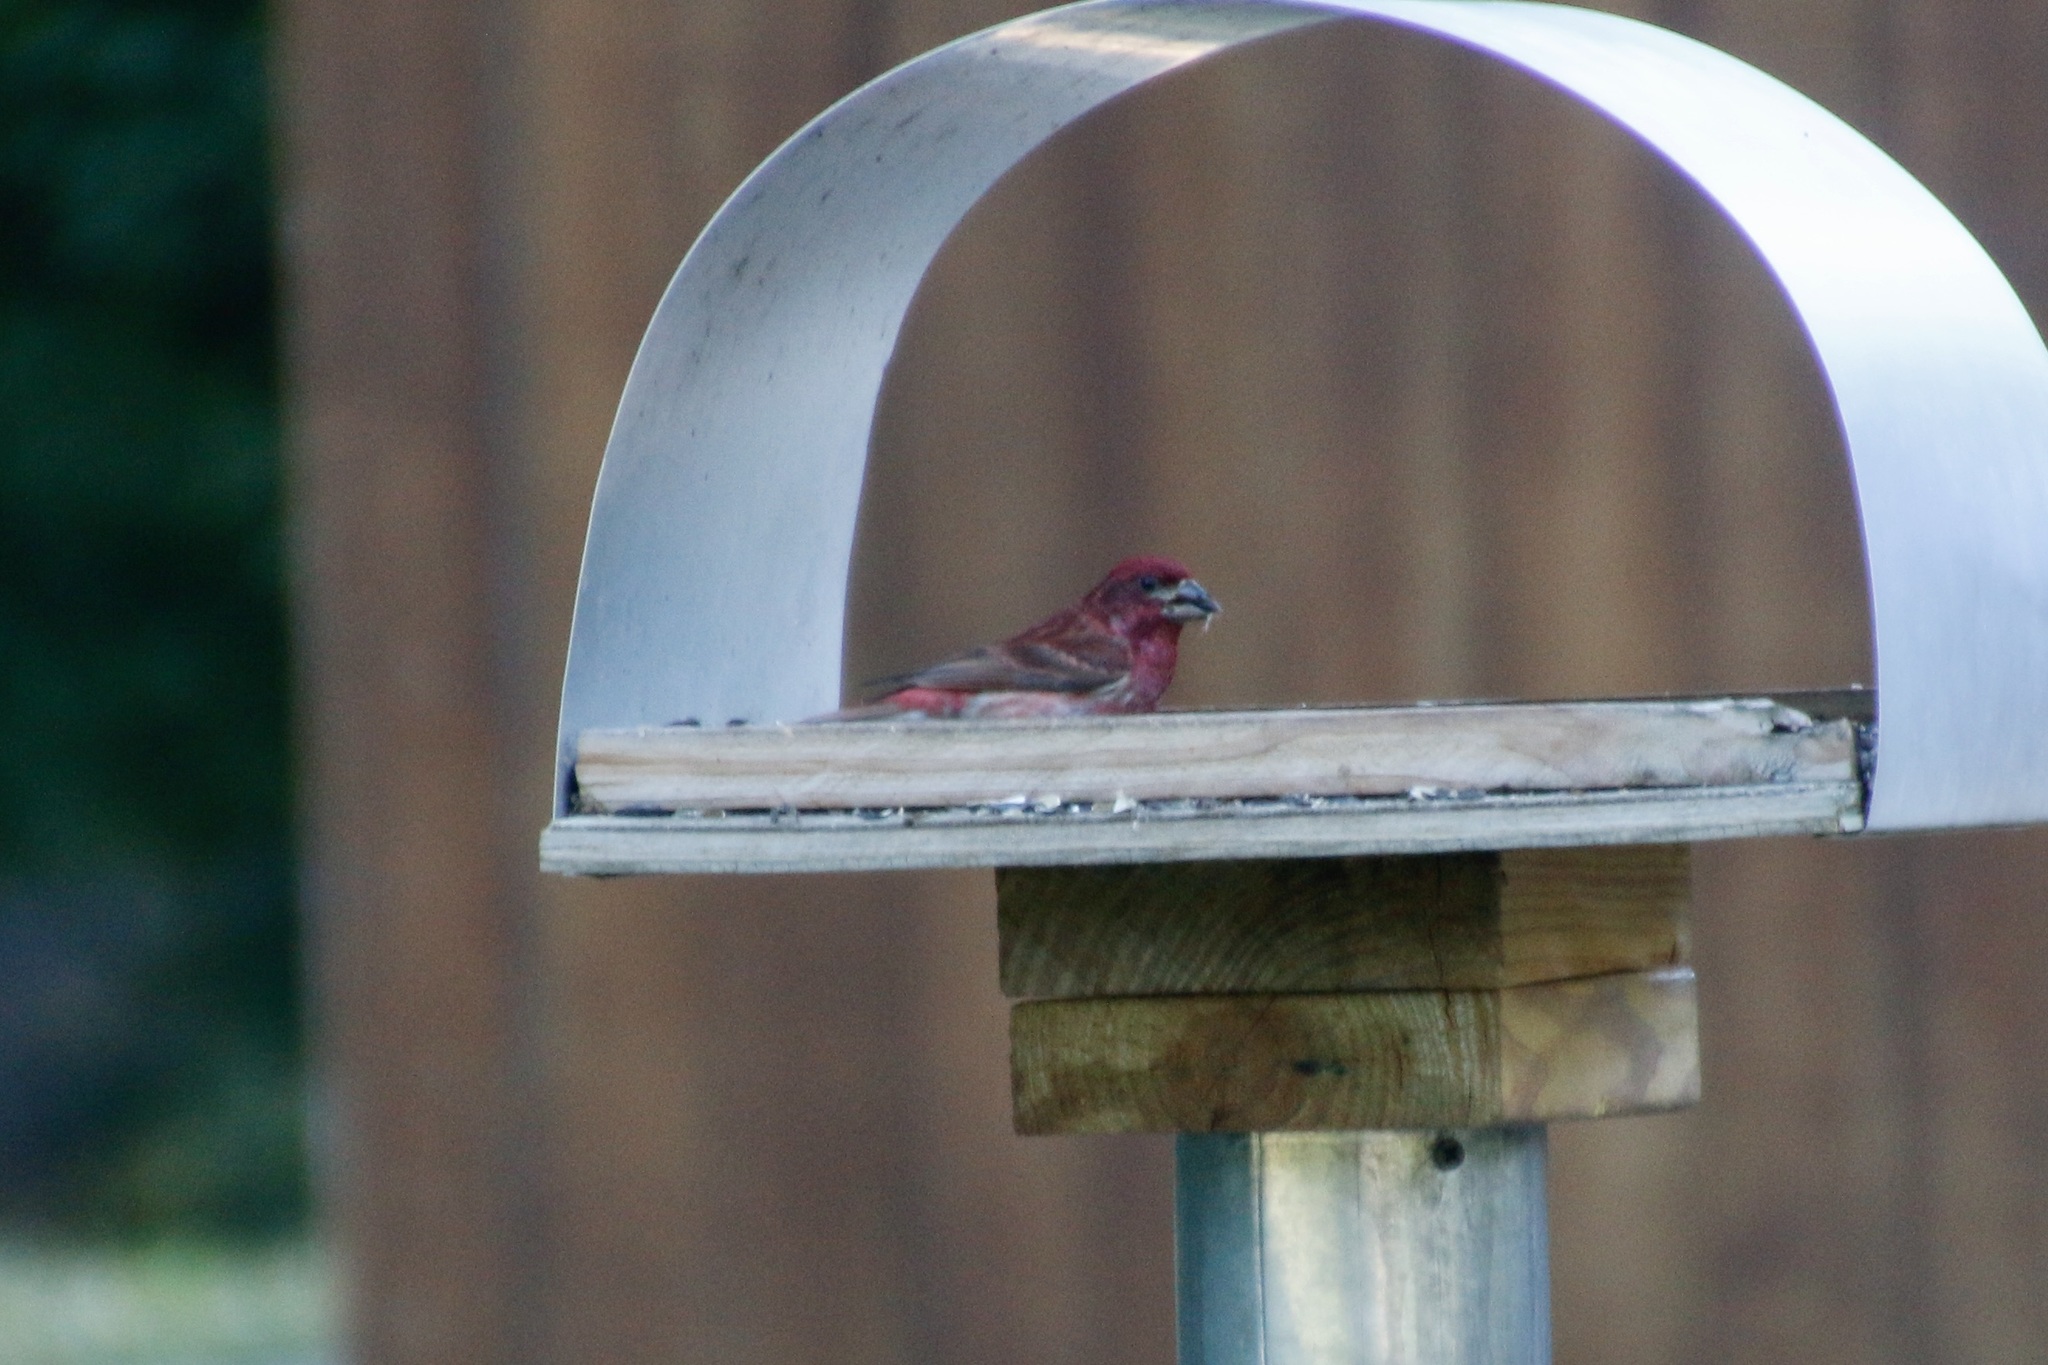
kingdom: Animalia
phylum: Chordata
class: Aves
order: Passeriformes
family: Fringillidae
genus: Haemorhous
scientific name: Haemorhous purpureus
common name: Purple finch
